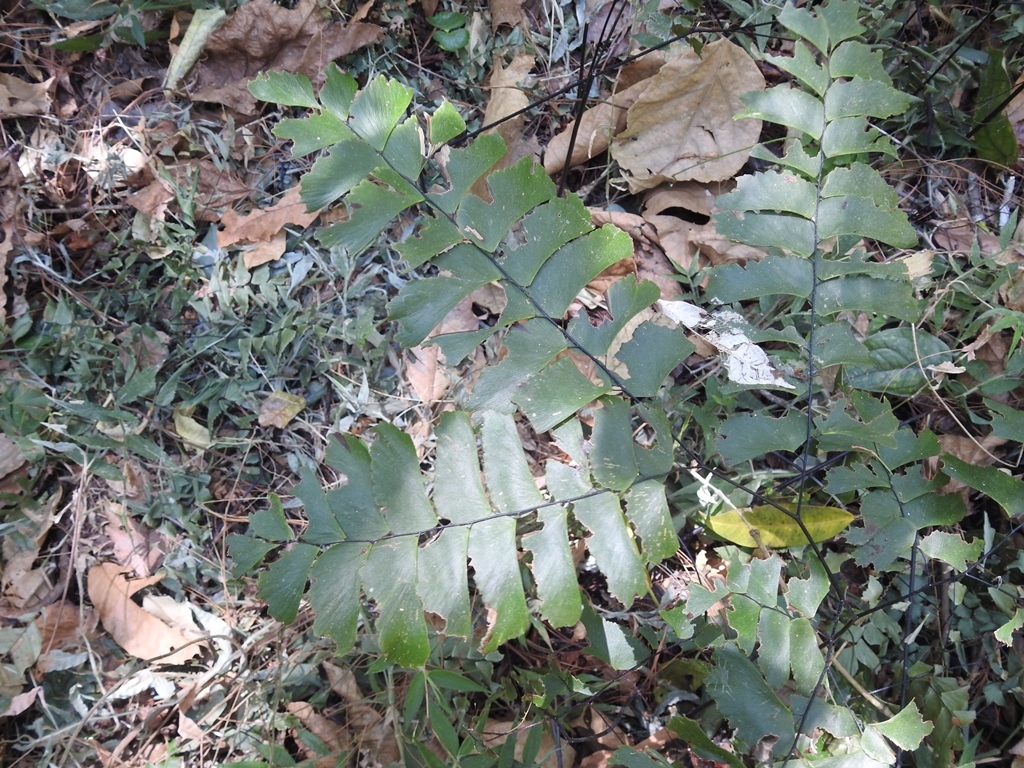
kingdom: Plantae
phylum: Tracheophyta
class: Polypodiopsida
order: Polypodiales
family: Pteridaceae
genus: Adiantum
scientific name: Adiantum trapeziforme
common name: Diamond maidenhair
